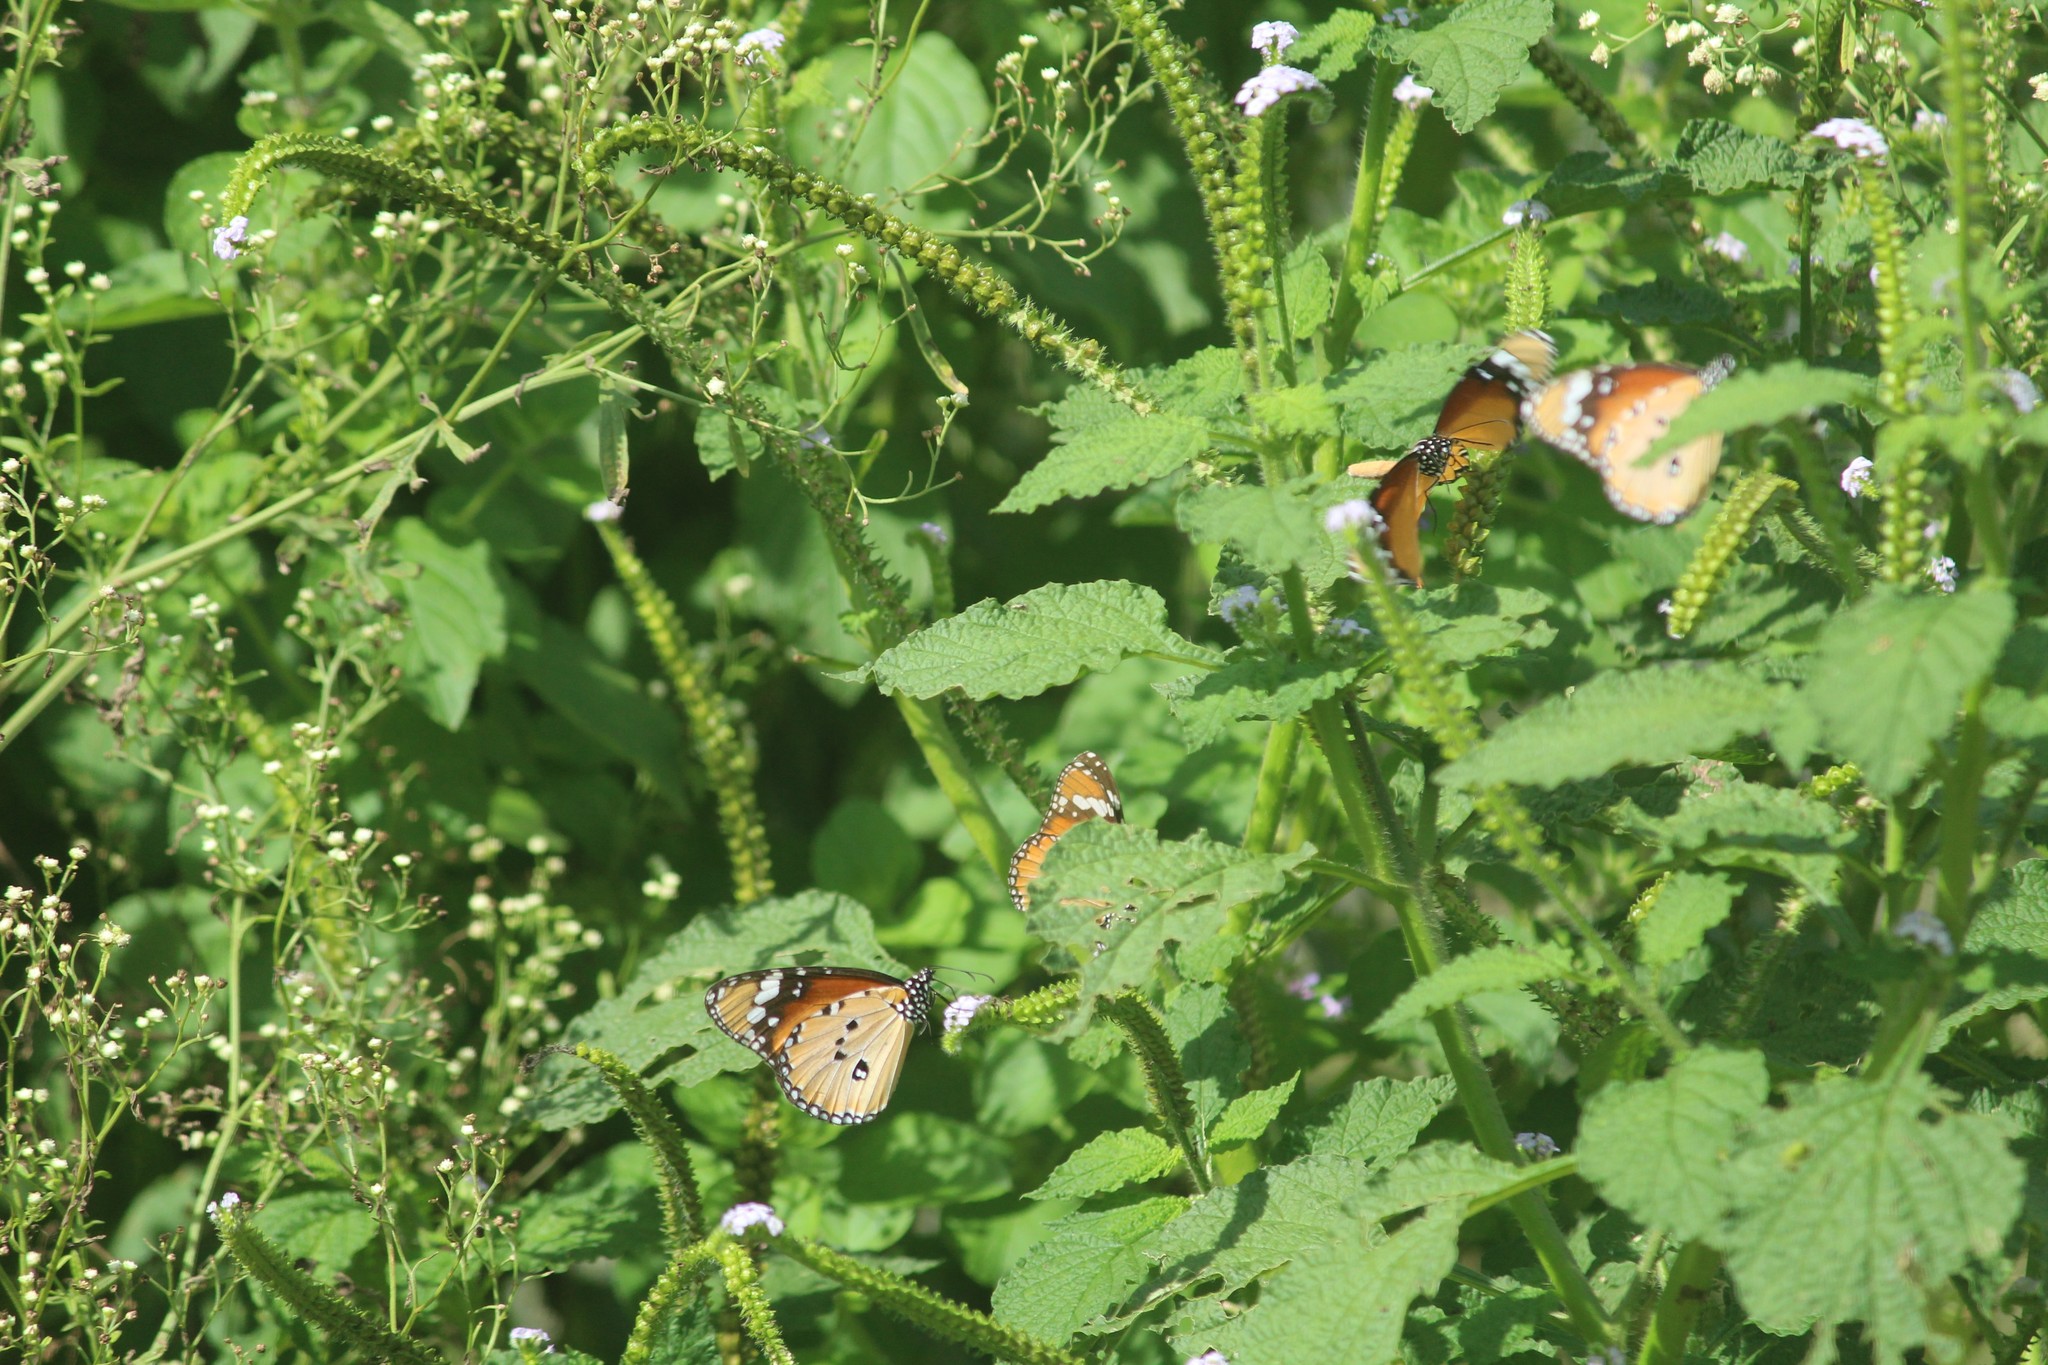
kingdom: Animalia
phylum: Arthropoda
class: Insecta
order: Lepidoptera
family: Nymphalidae
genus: Danaus
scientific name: Danaus chrysippus
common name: Plain tiger
